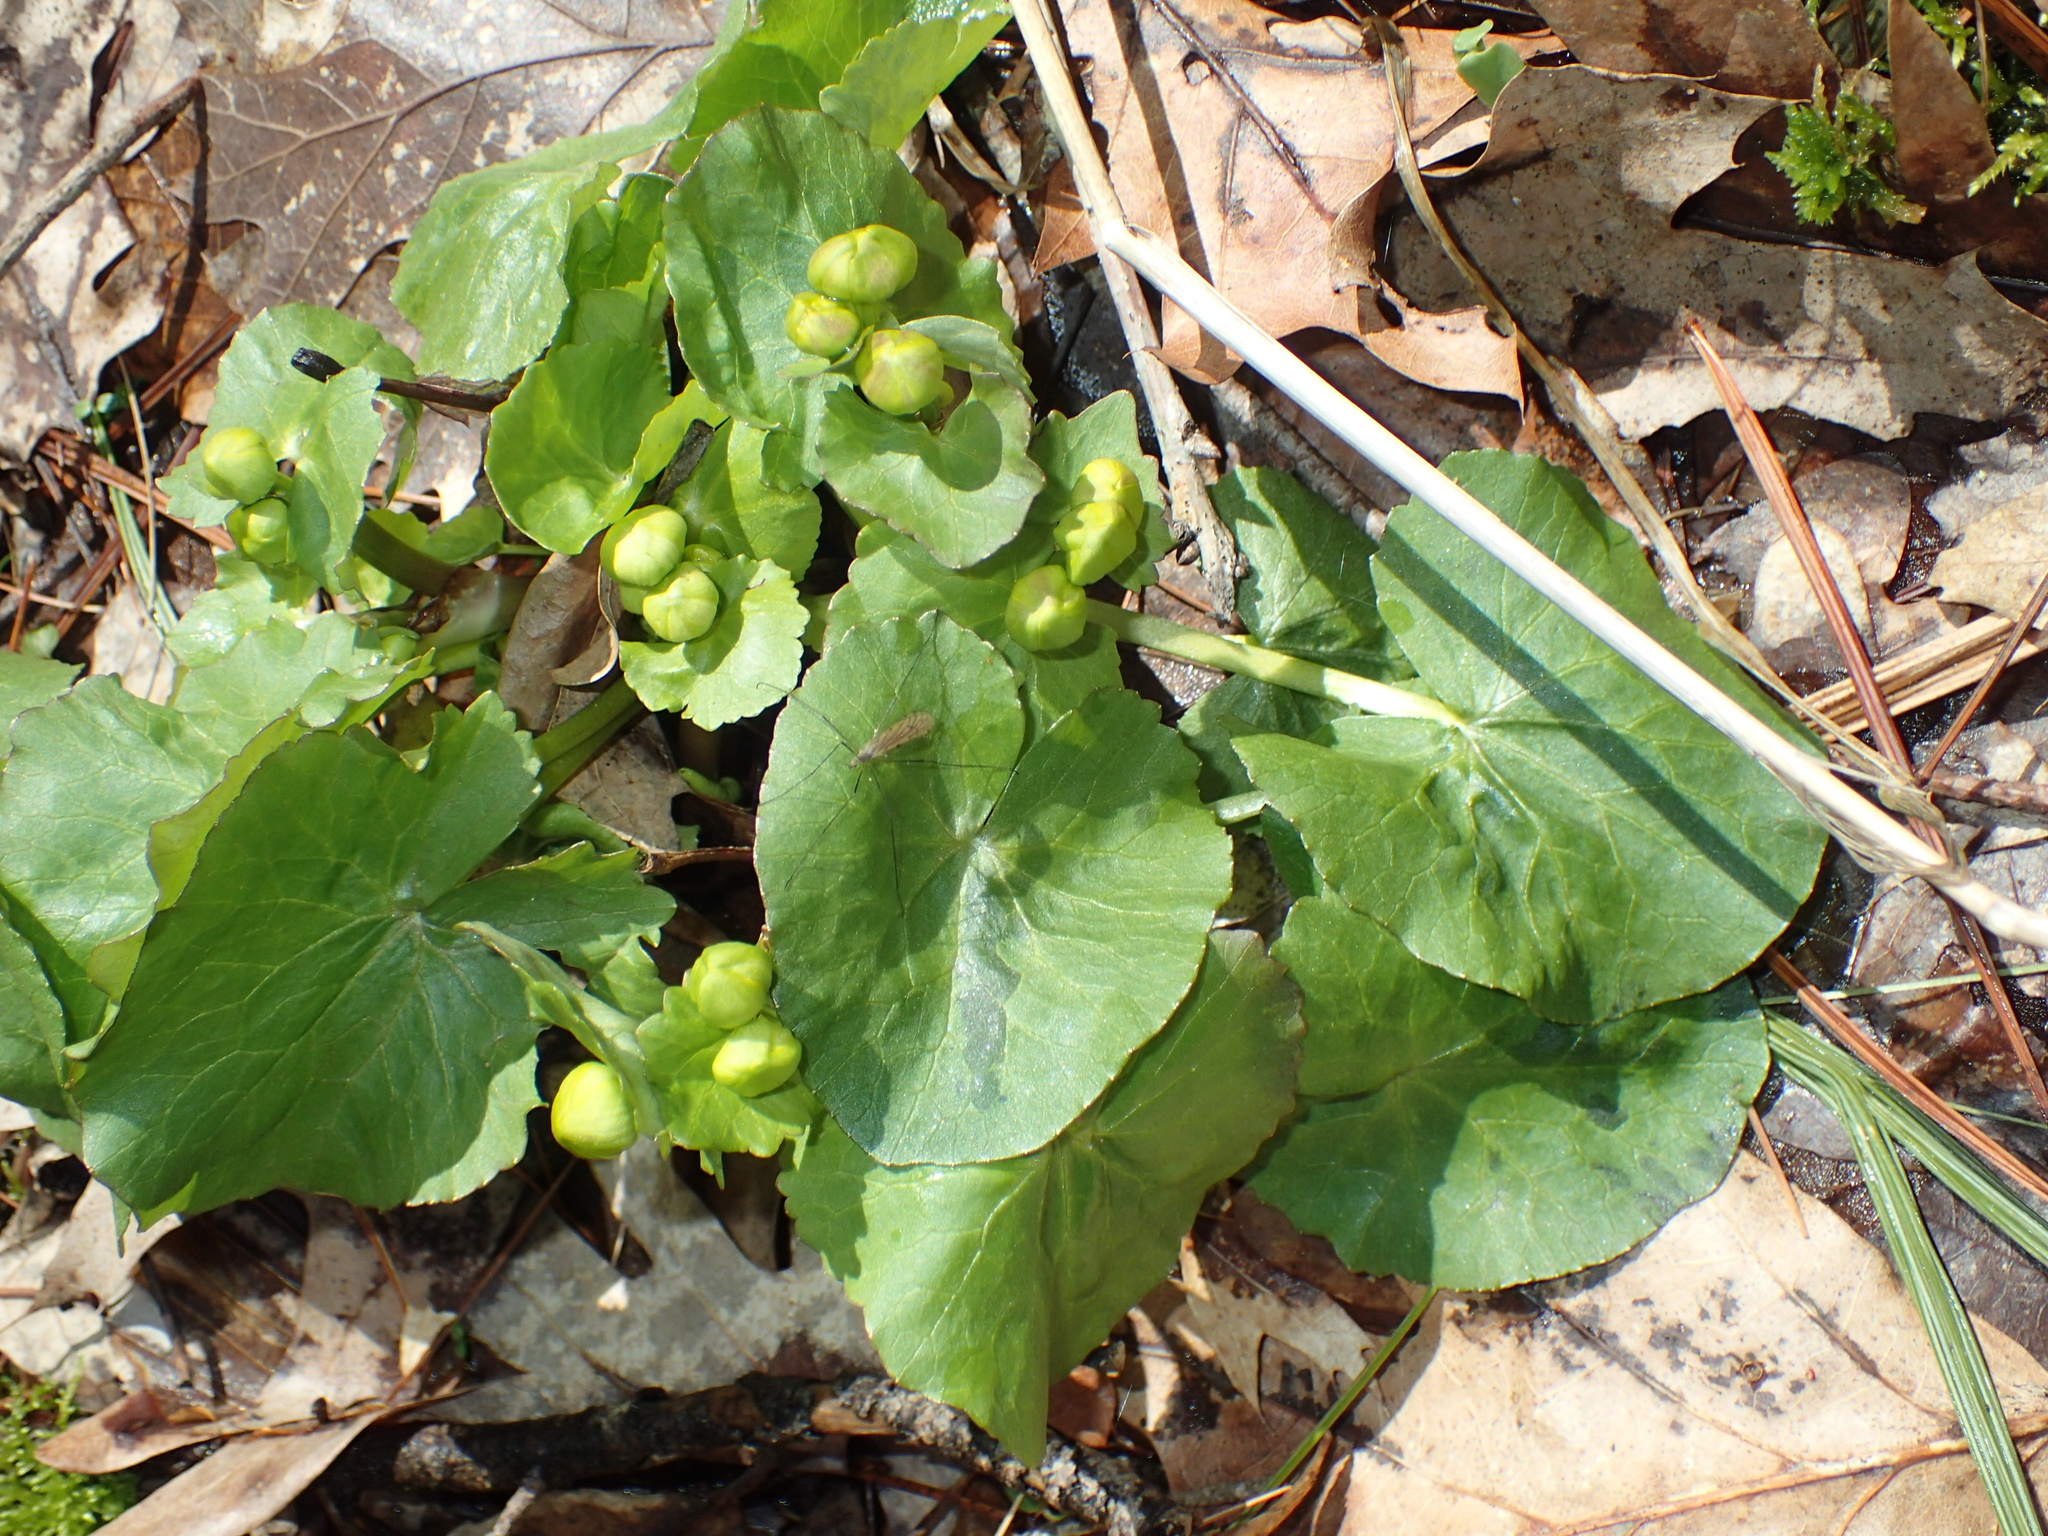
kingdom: Plantae
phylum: Tracheophyta
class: Magnoliopsida
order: Ranunculales
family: Ranunculaceae
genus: Caltha
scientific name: Caltha palustris
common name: Marsh marigold
